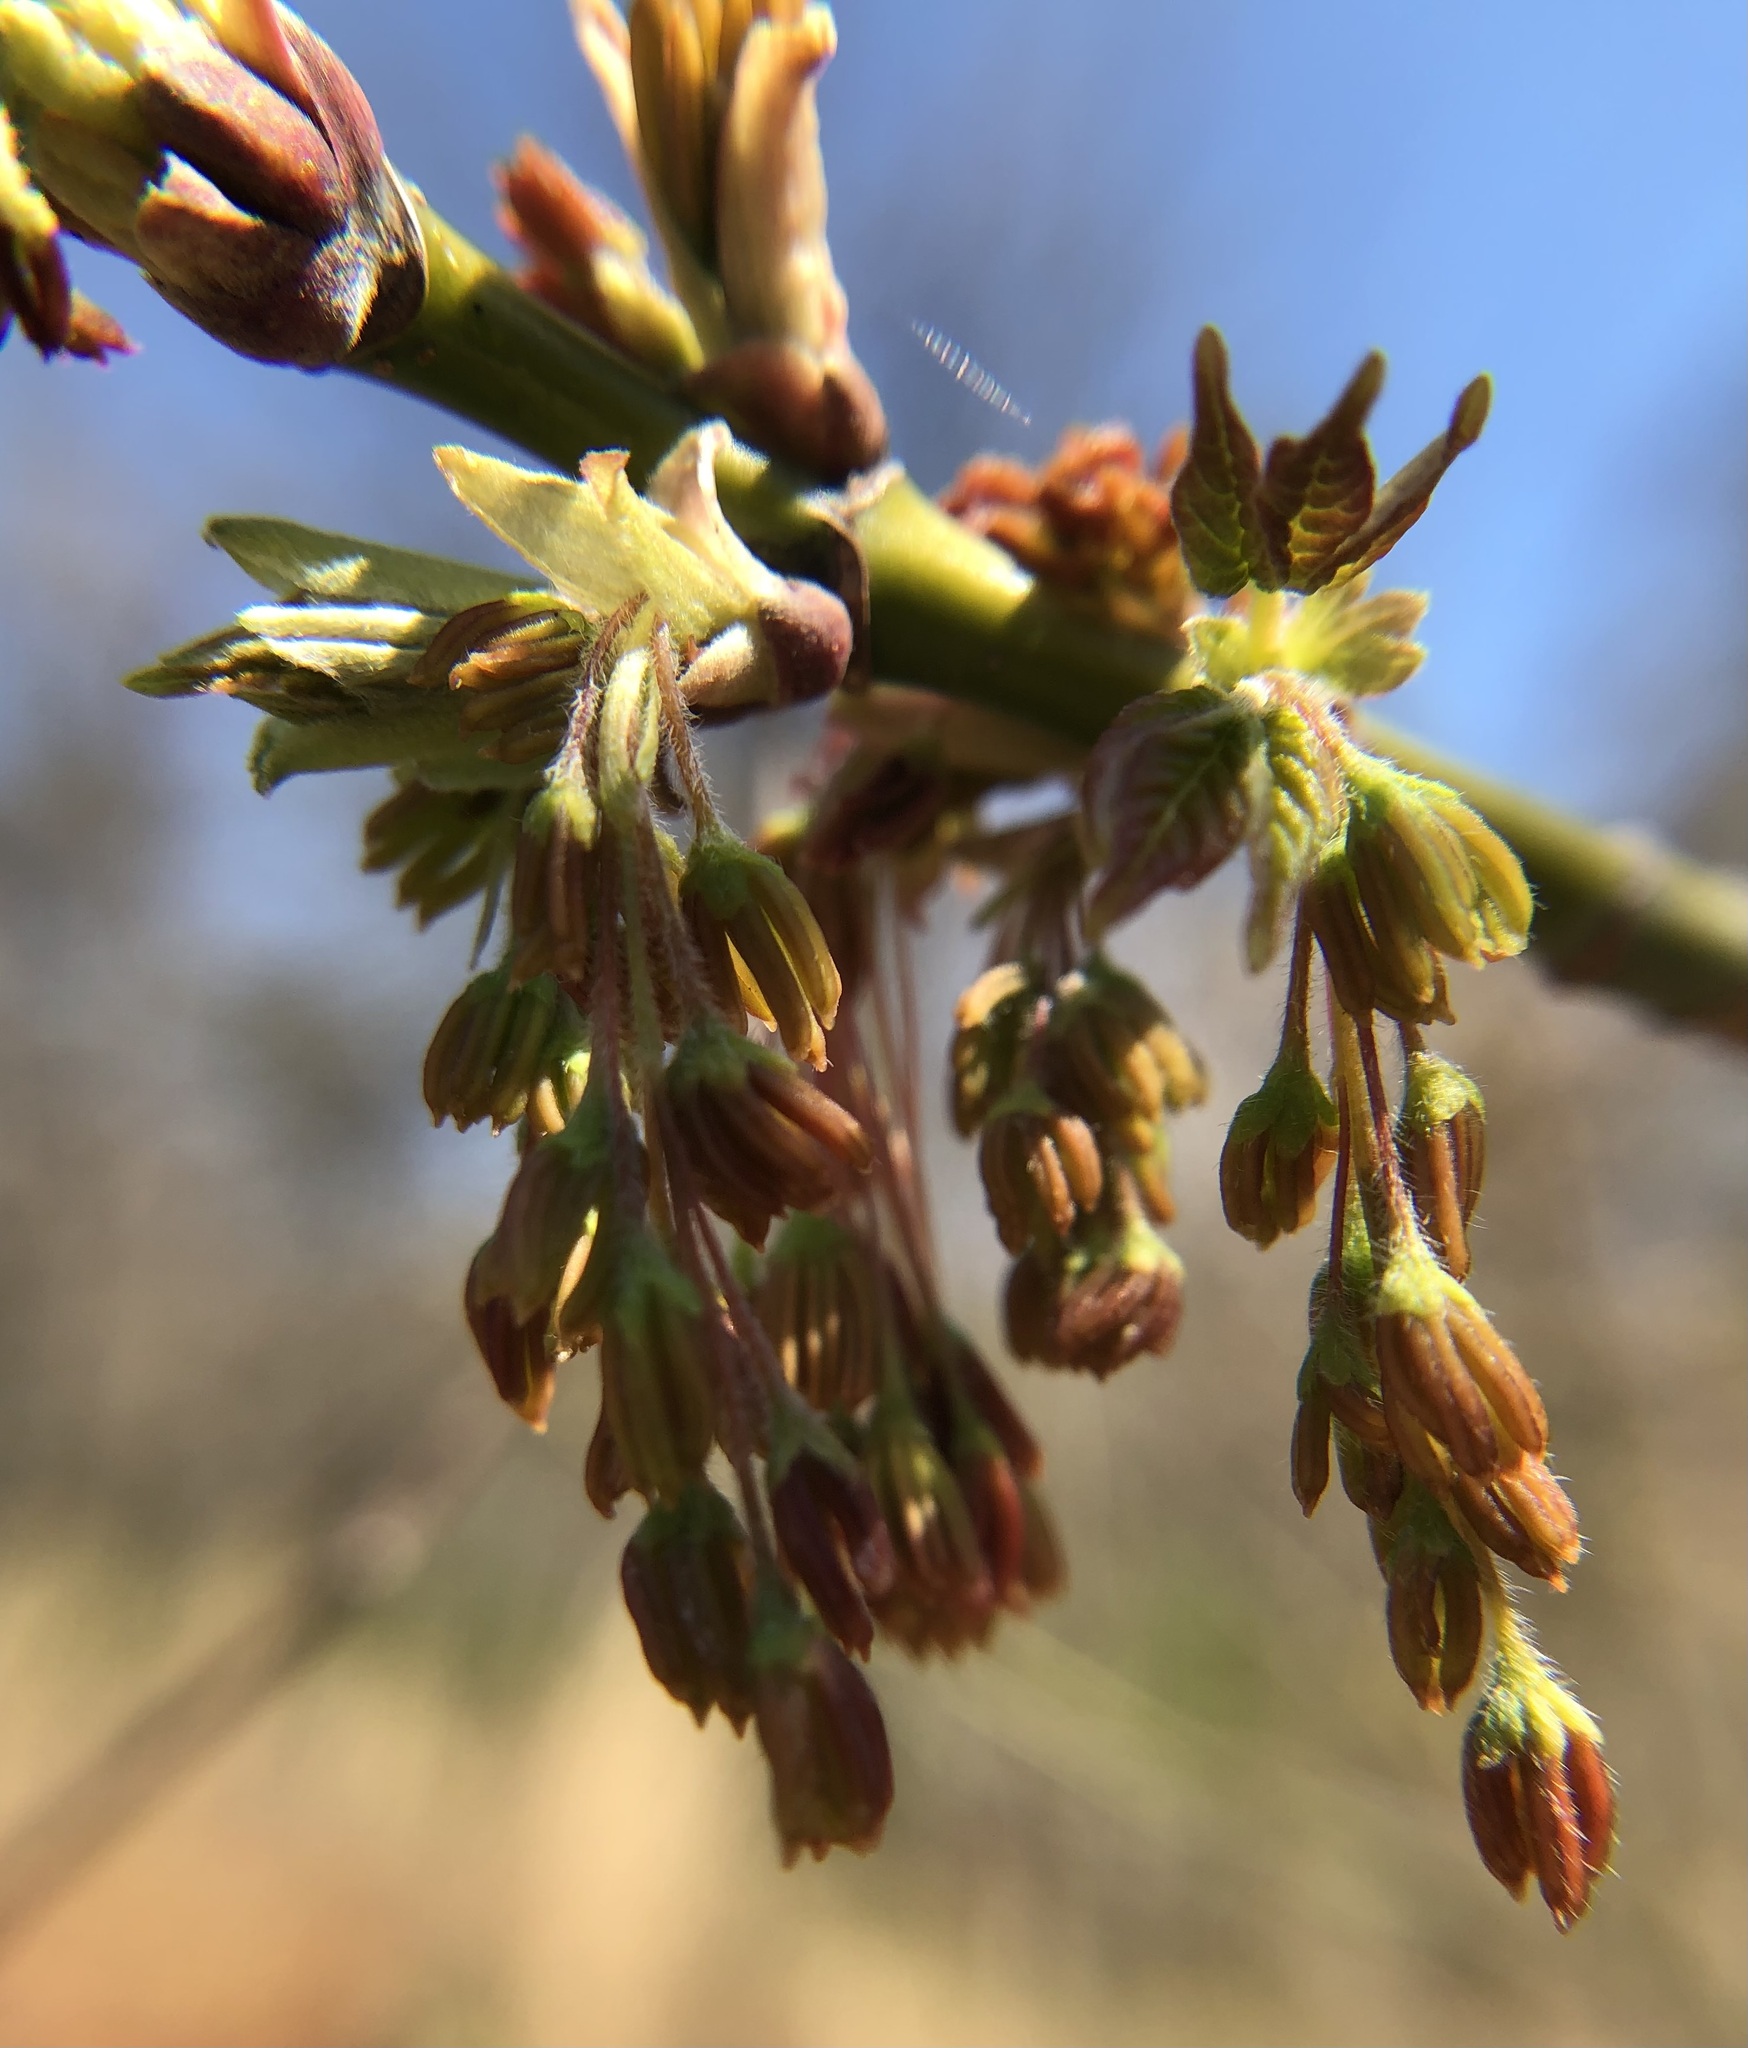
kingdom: Plantae
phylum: Tracheophyta
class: Magnoliopsida
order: Sapindales
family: Sapindaceae
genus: Acer
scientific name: Acer negundo
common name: Ashleaf maple
